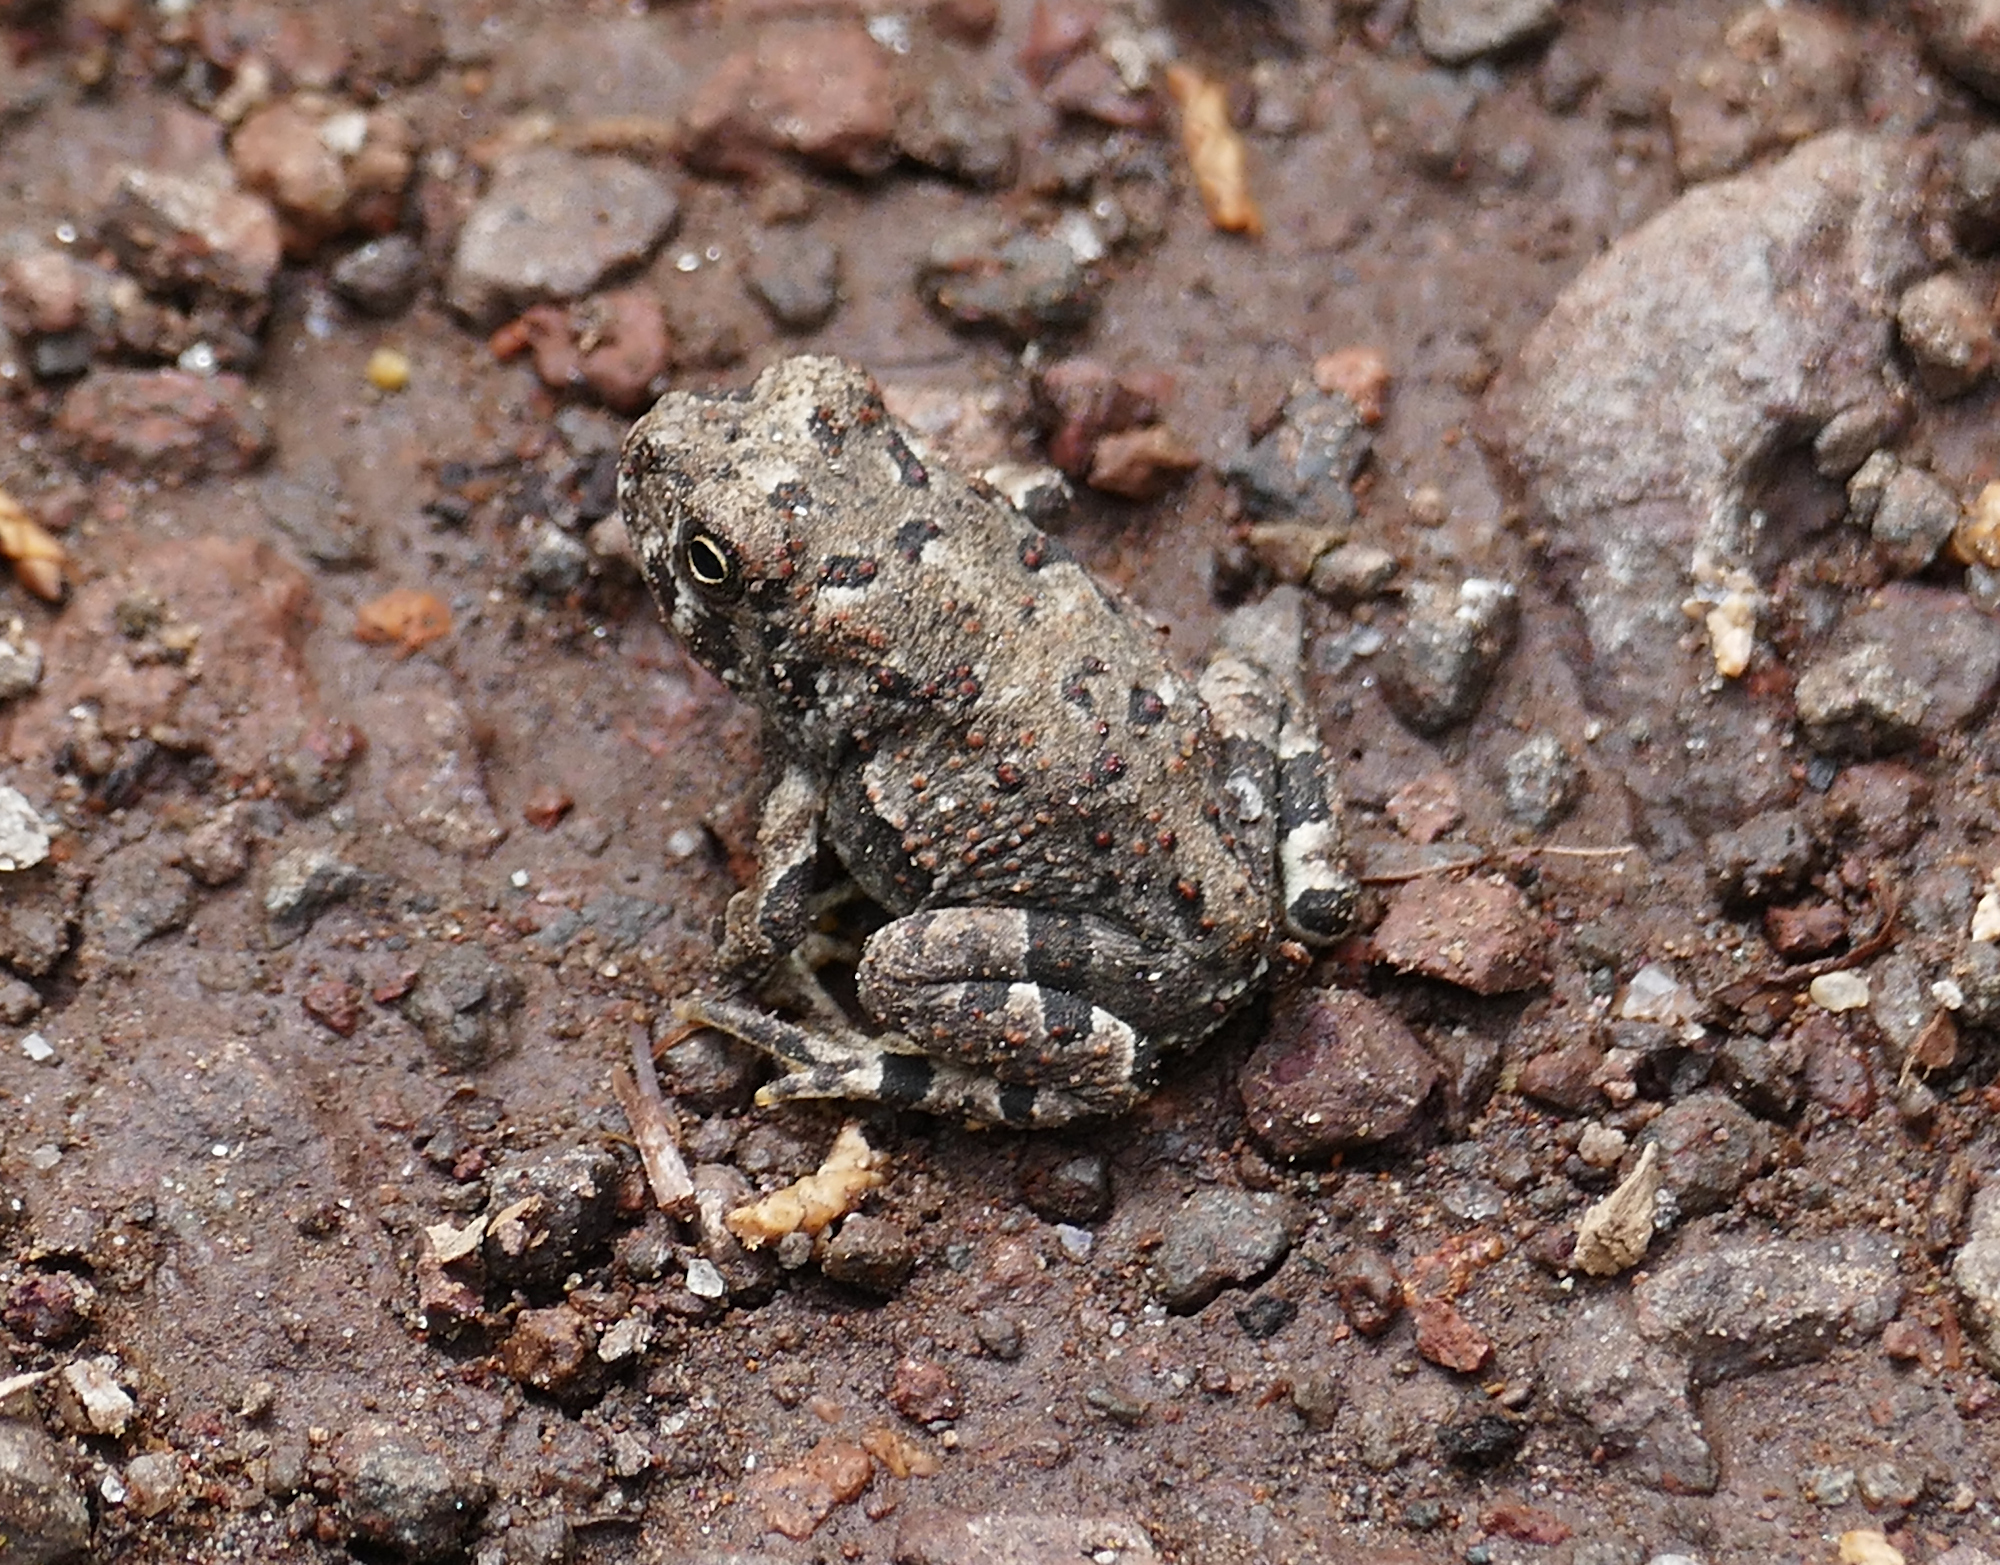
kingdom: Animalia
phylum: Chordata
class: Amphibia
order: Anura
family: Bufonidae
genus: Anaxyrus
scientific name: Anaxyrus microscaphus
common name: Arizona toad
